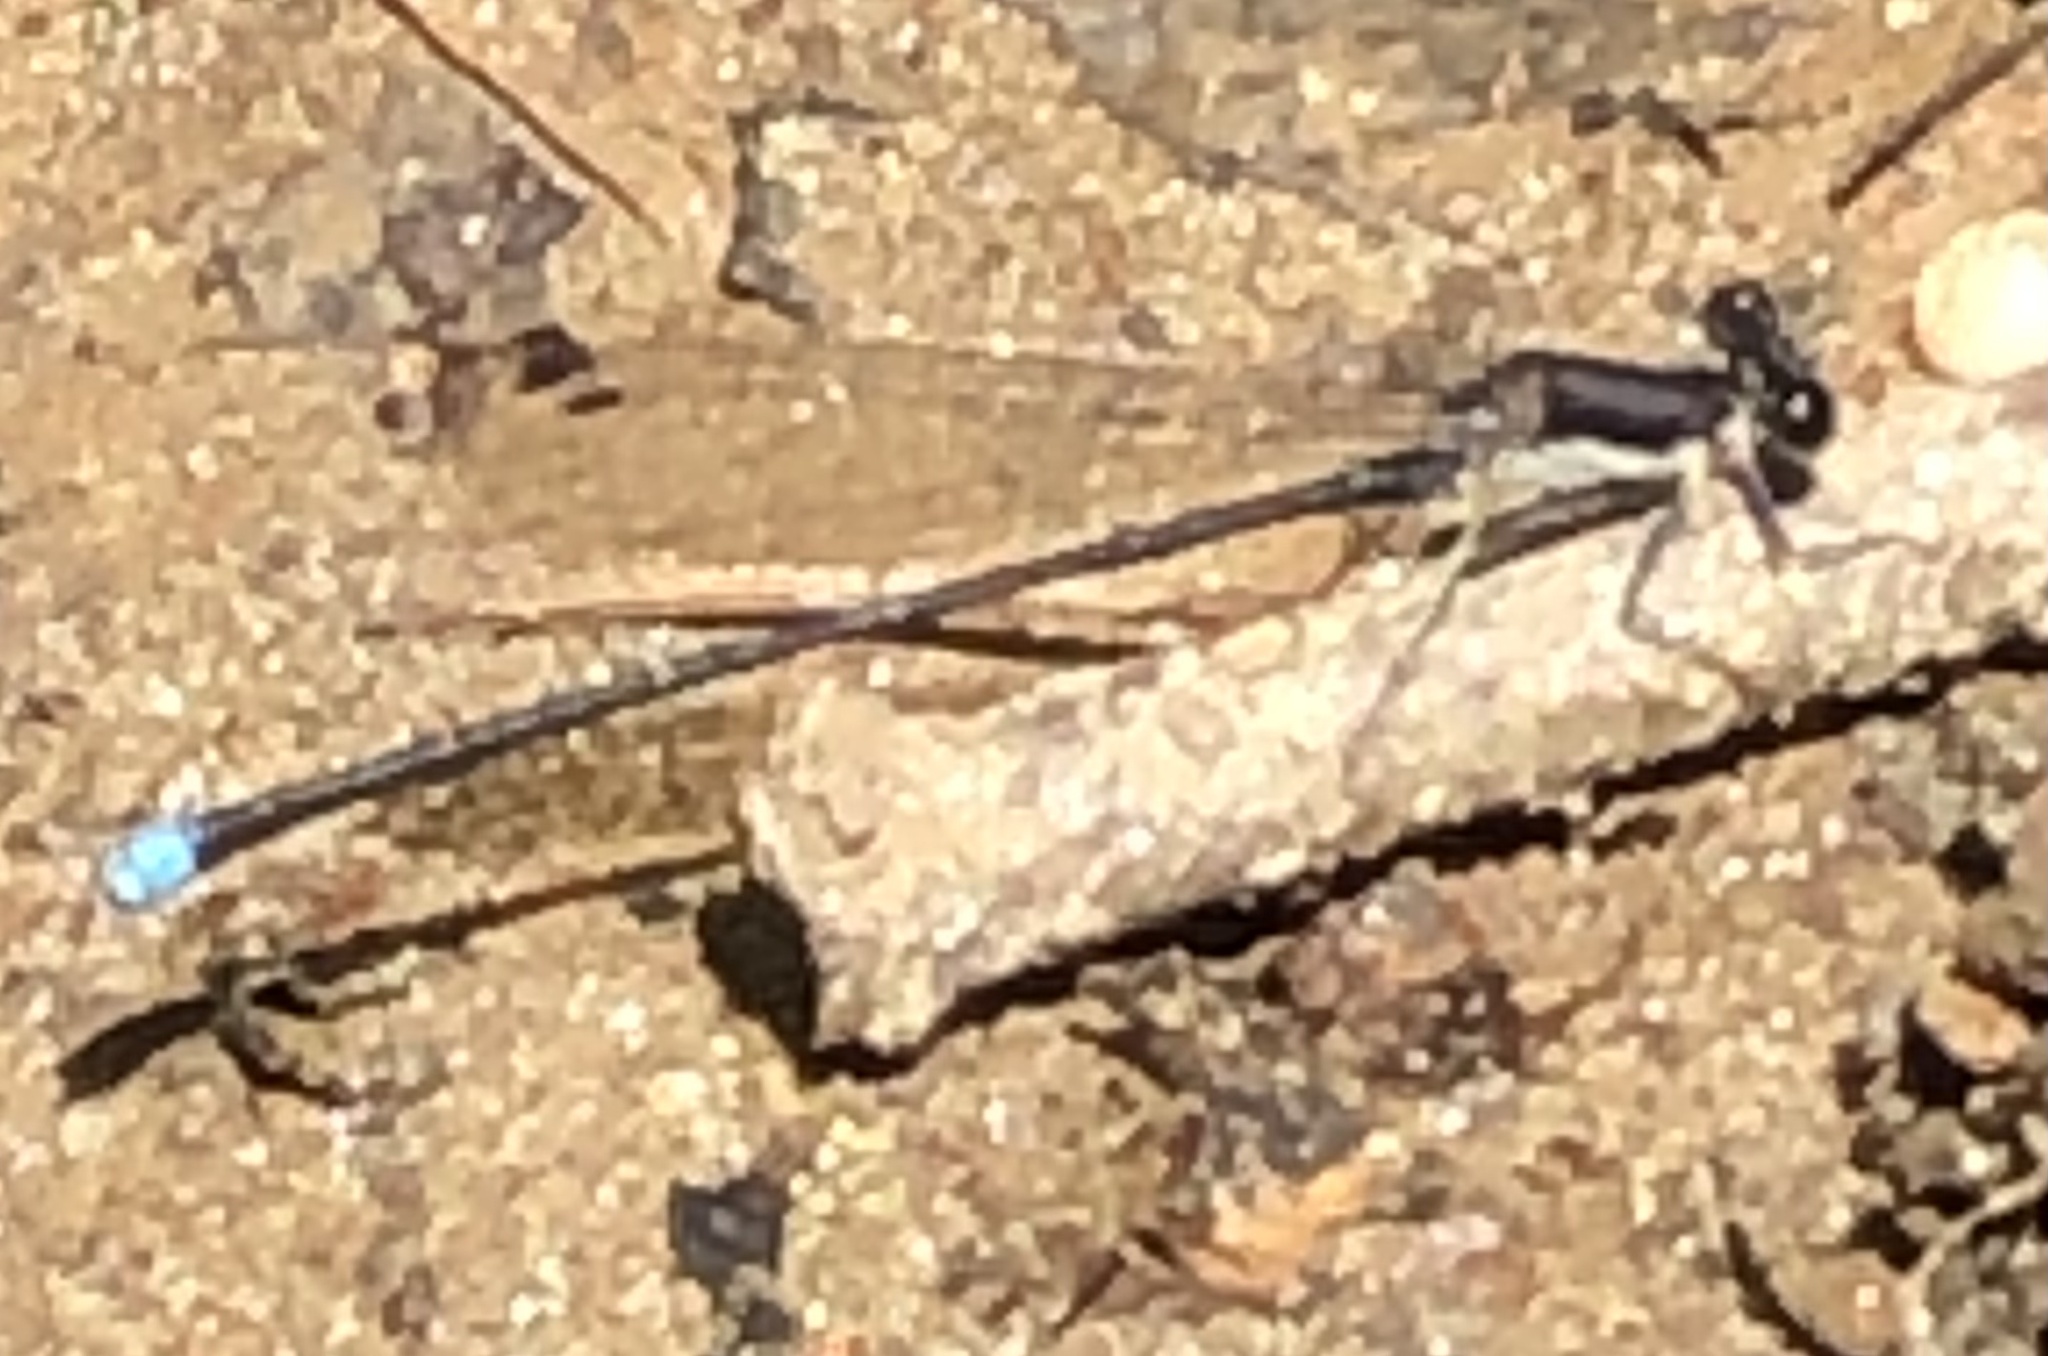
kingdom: Animalia
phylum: Arthropoda
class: Insecta
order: Odonata
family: Coenagrionidae
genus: Argia
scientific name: Argia tibialis
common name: Blue-tipped dancer
